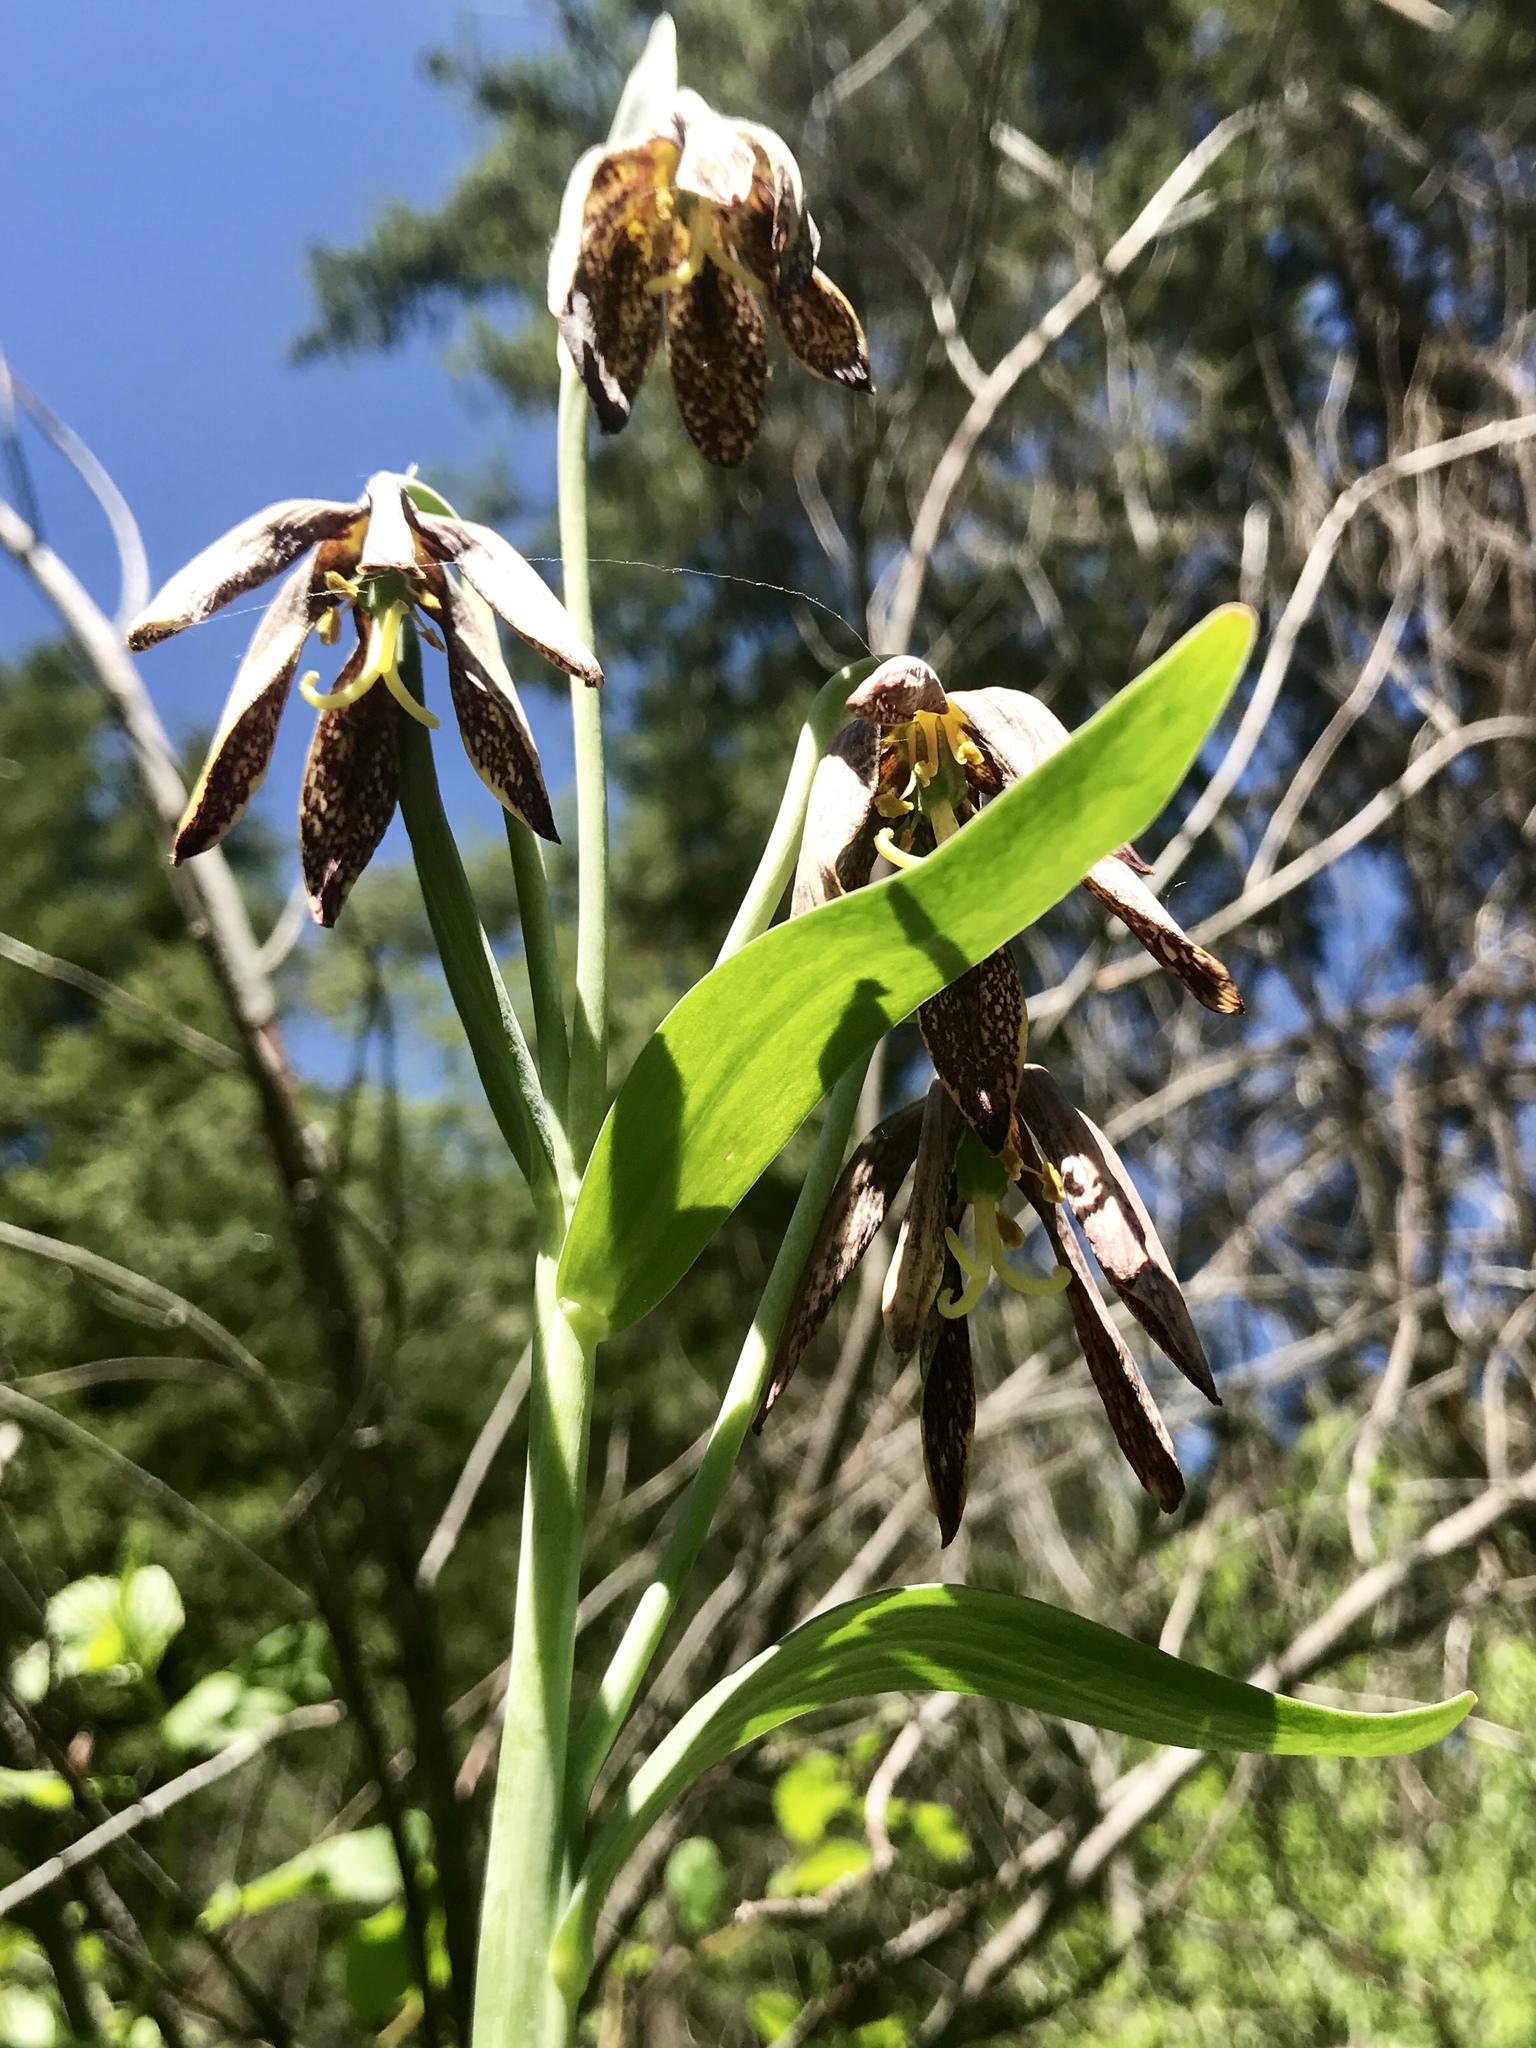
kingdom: Plantae
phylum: Tracheophyta
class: Liliopsida
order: Liliales
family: Liliaceae
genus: Fritillaria
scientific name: Fritillaria affinis
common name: Ojai fritillary
